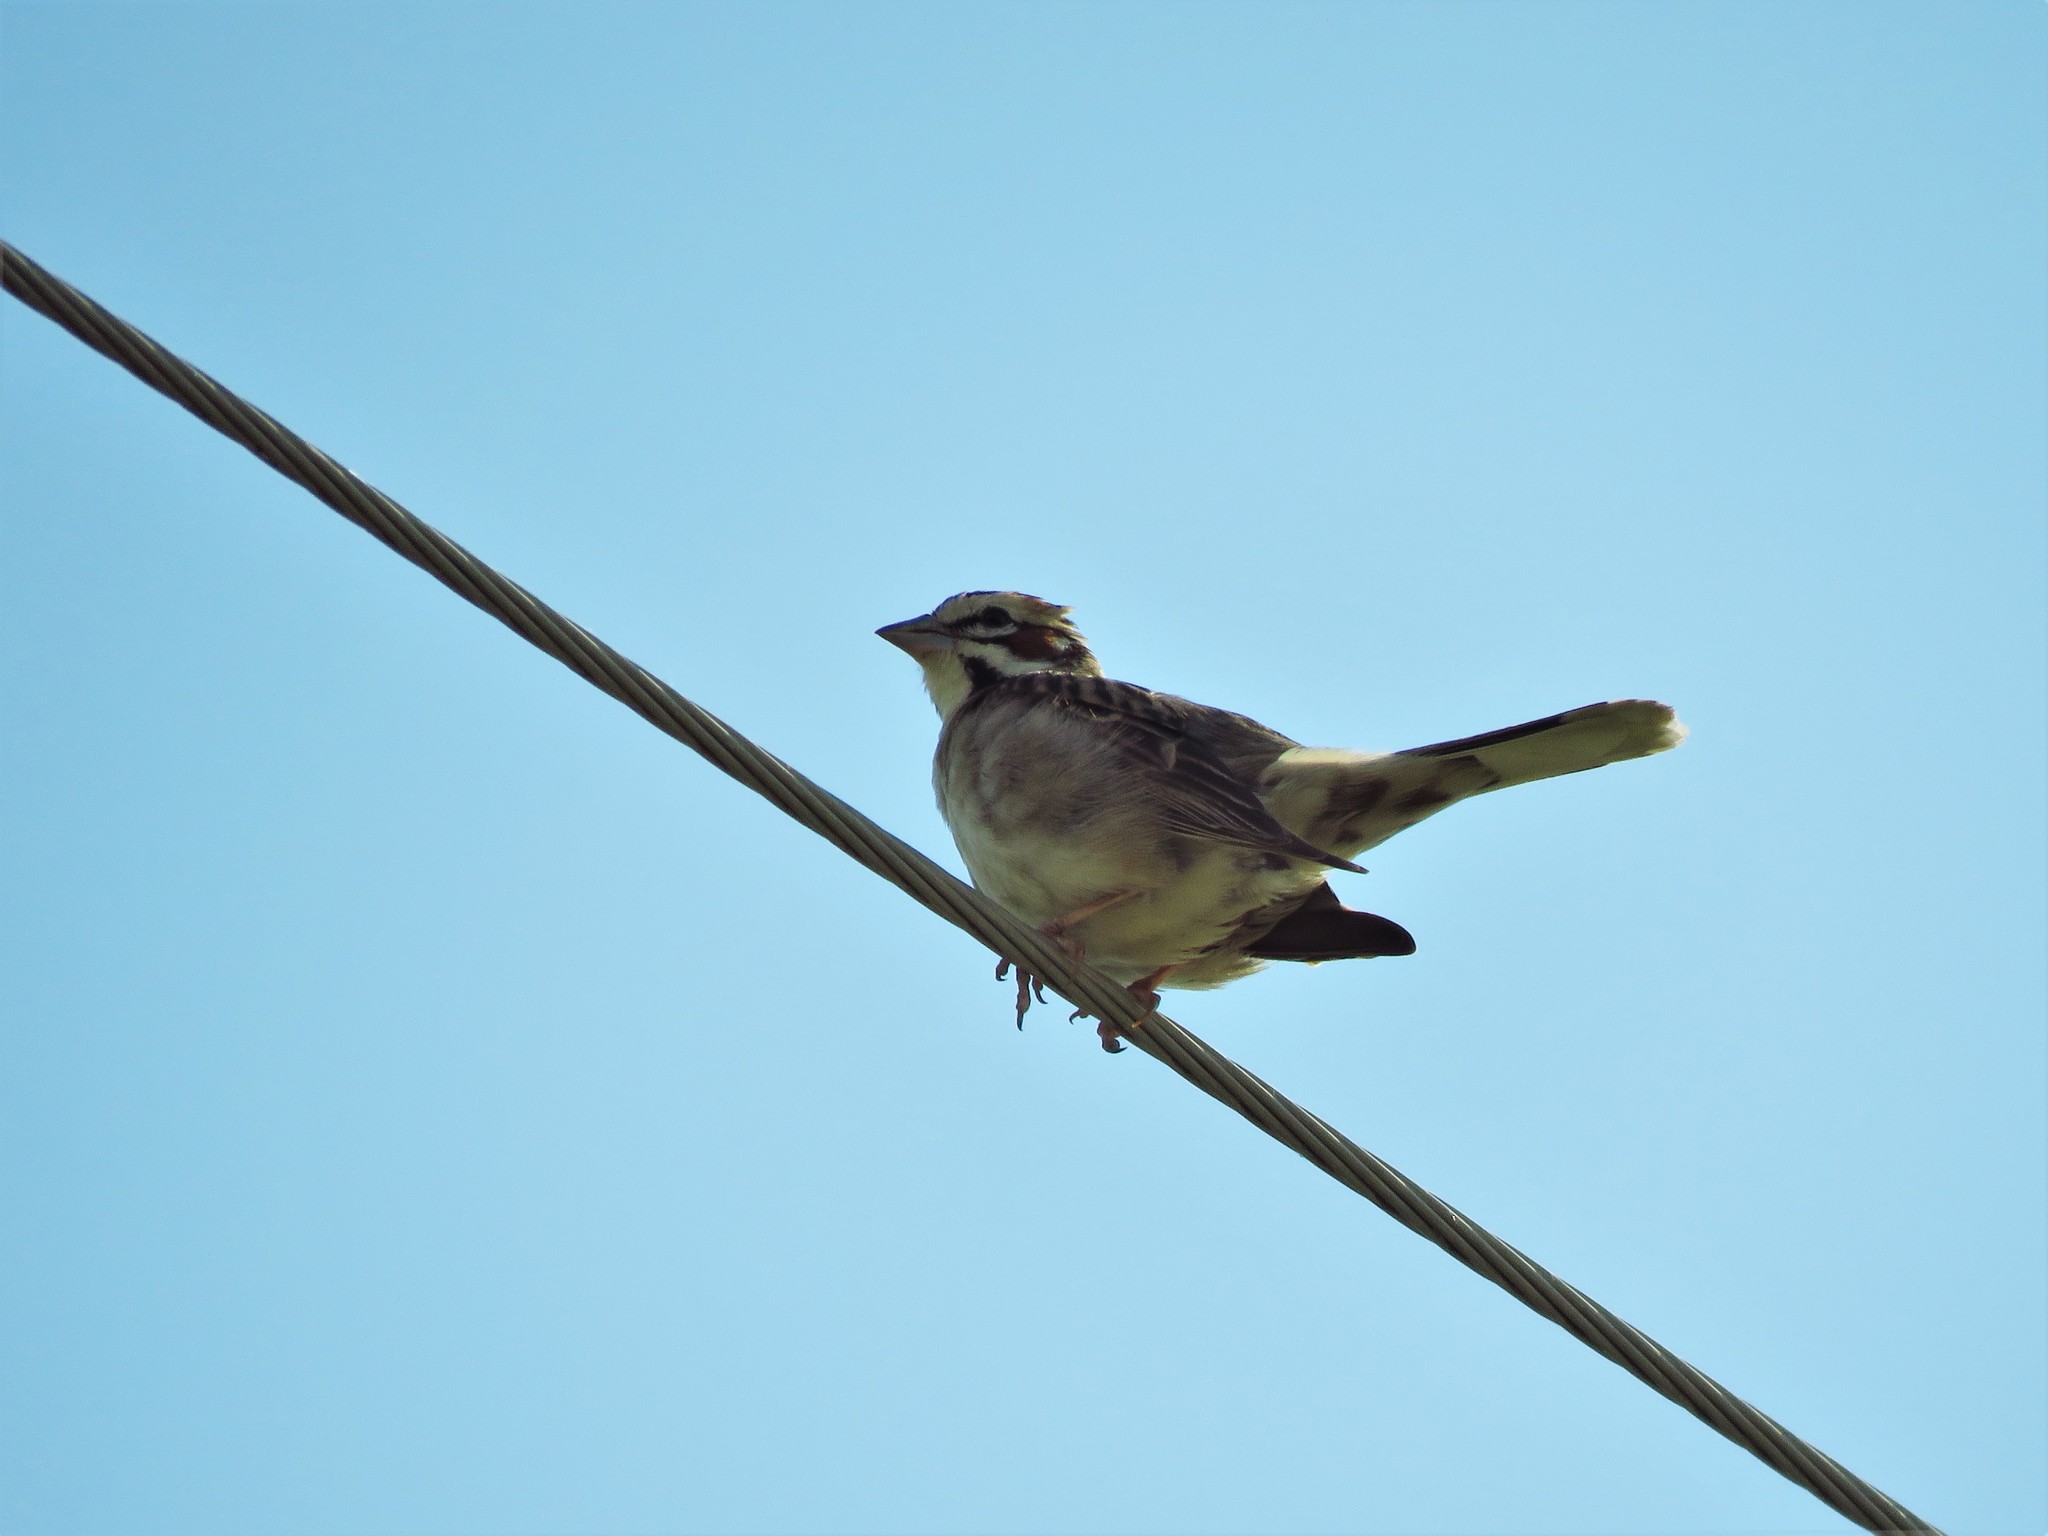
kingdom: Animalia
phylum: Chordata
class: Aves
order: Passeriformes
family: Passerellidae
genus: Chondestes
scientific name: Chondestes grammacus
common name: Lark sparrow
